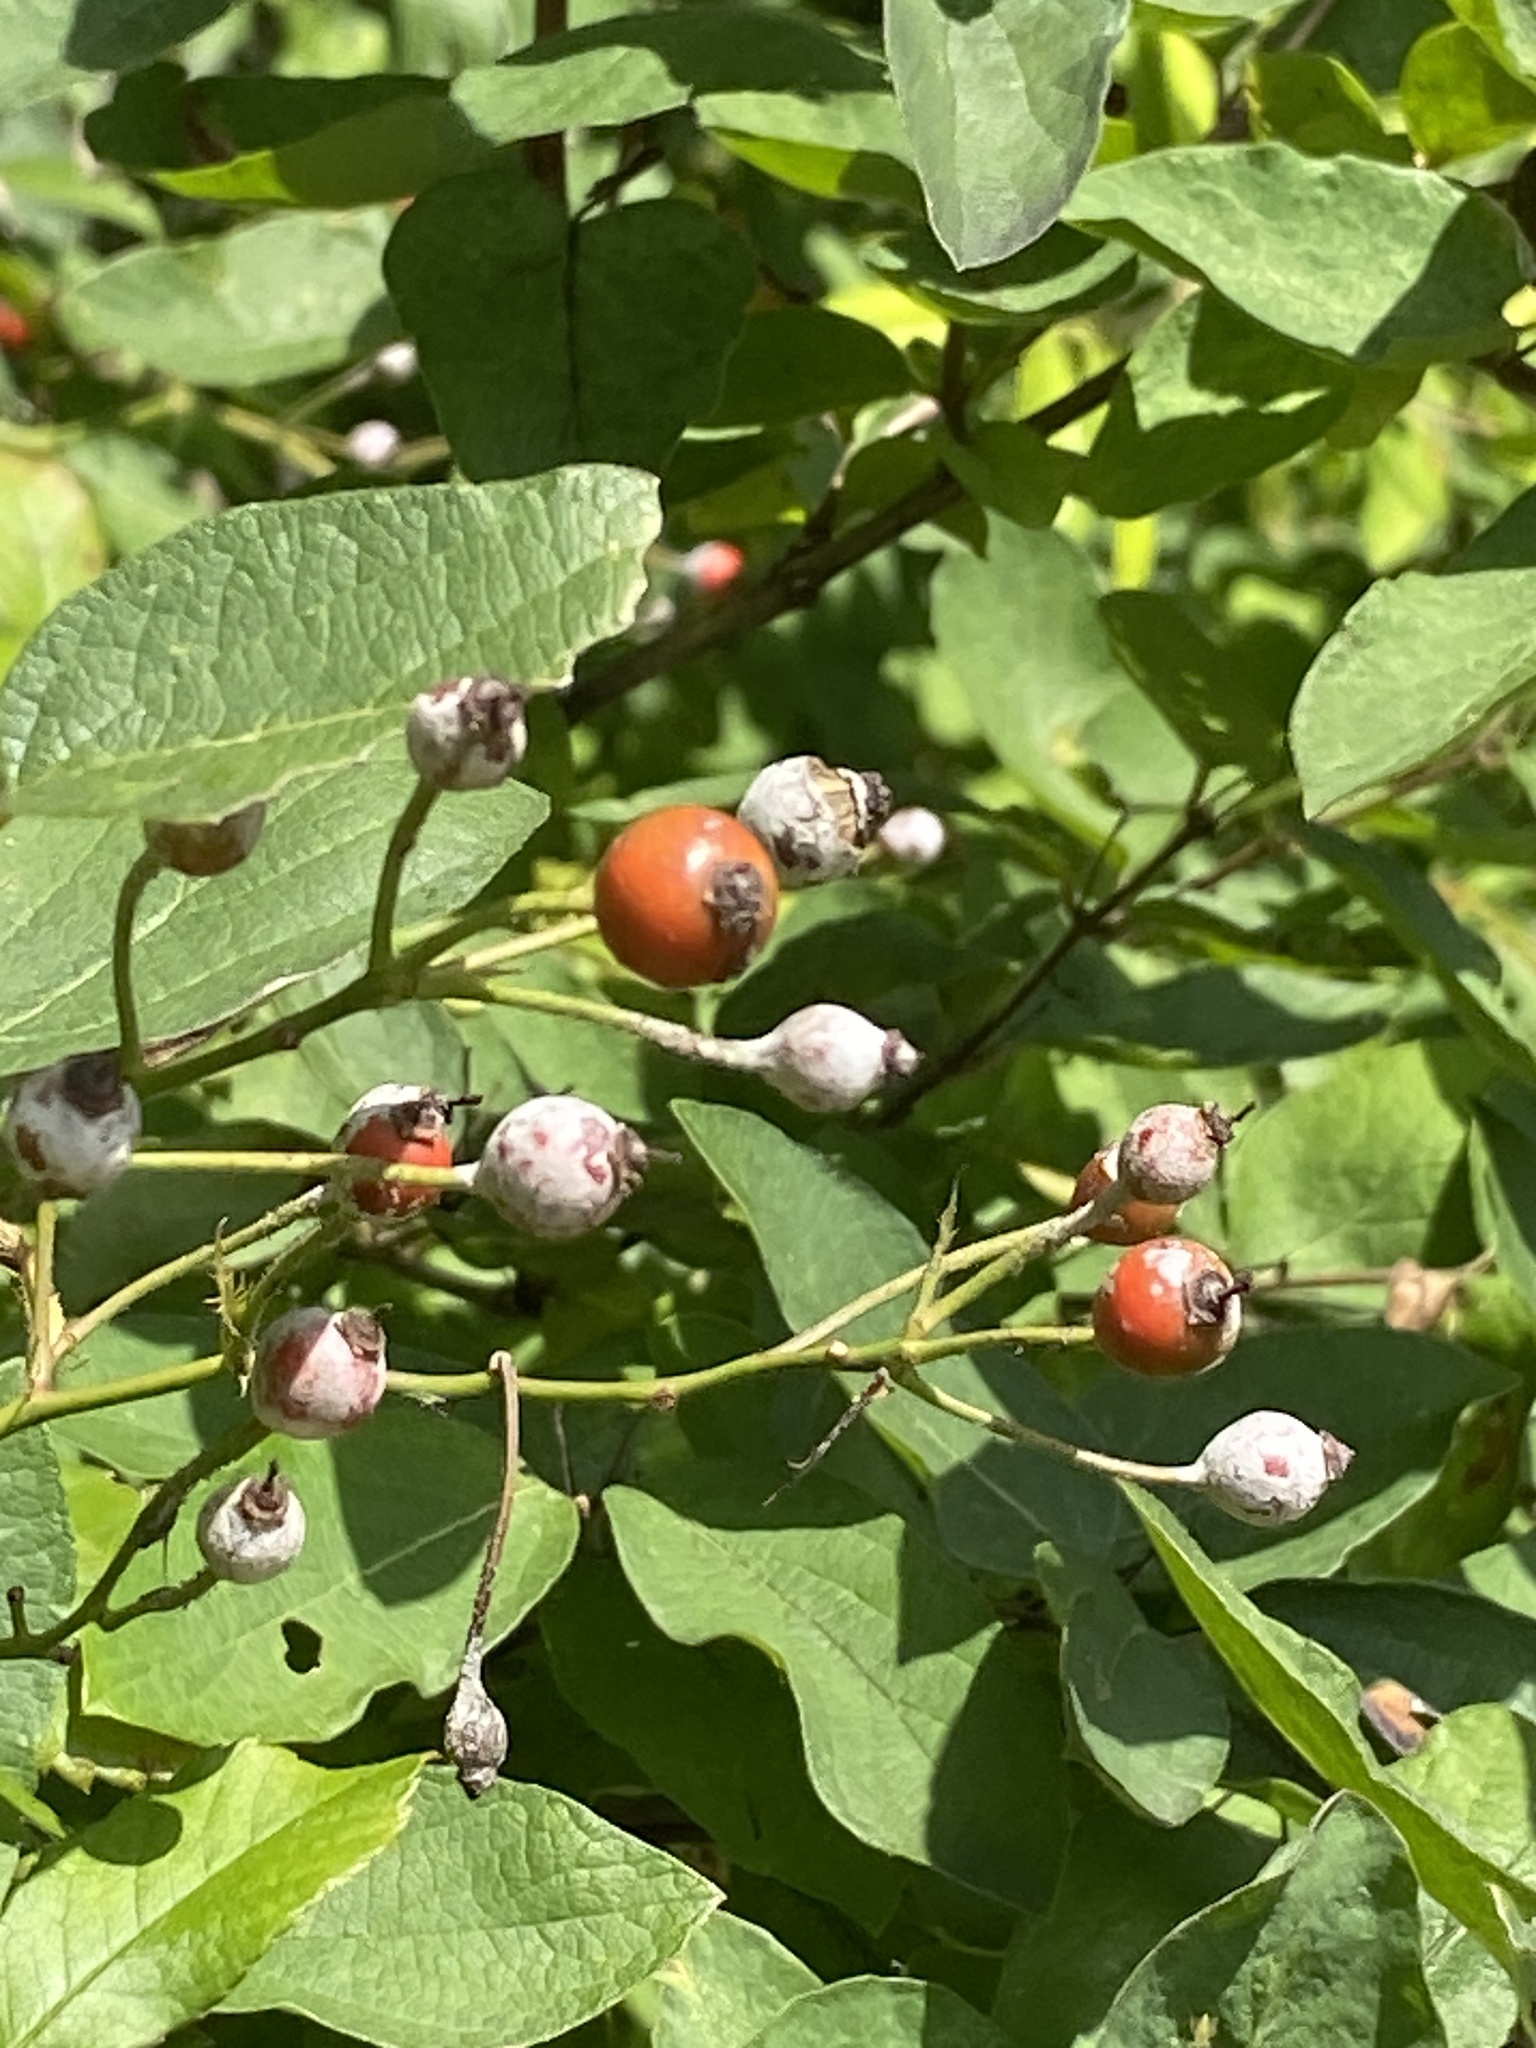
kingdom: Plantae
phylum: Tracheophyta
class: Magnoliopsida
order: Rosales
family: Rosaceae
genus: Rosa
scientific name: Rosa multiflora
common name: Multiflora rose
